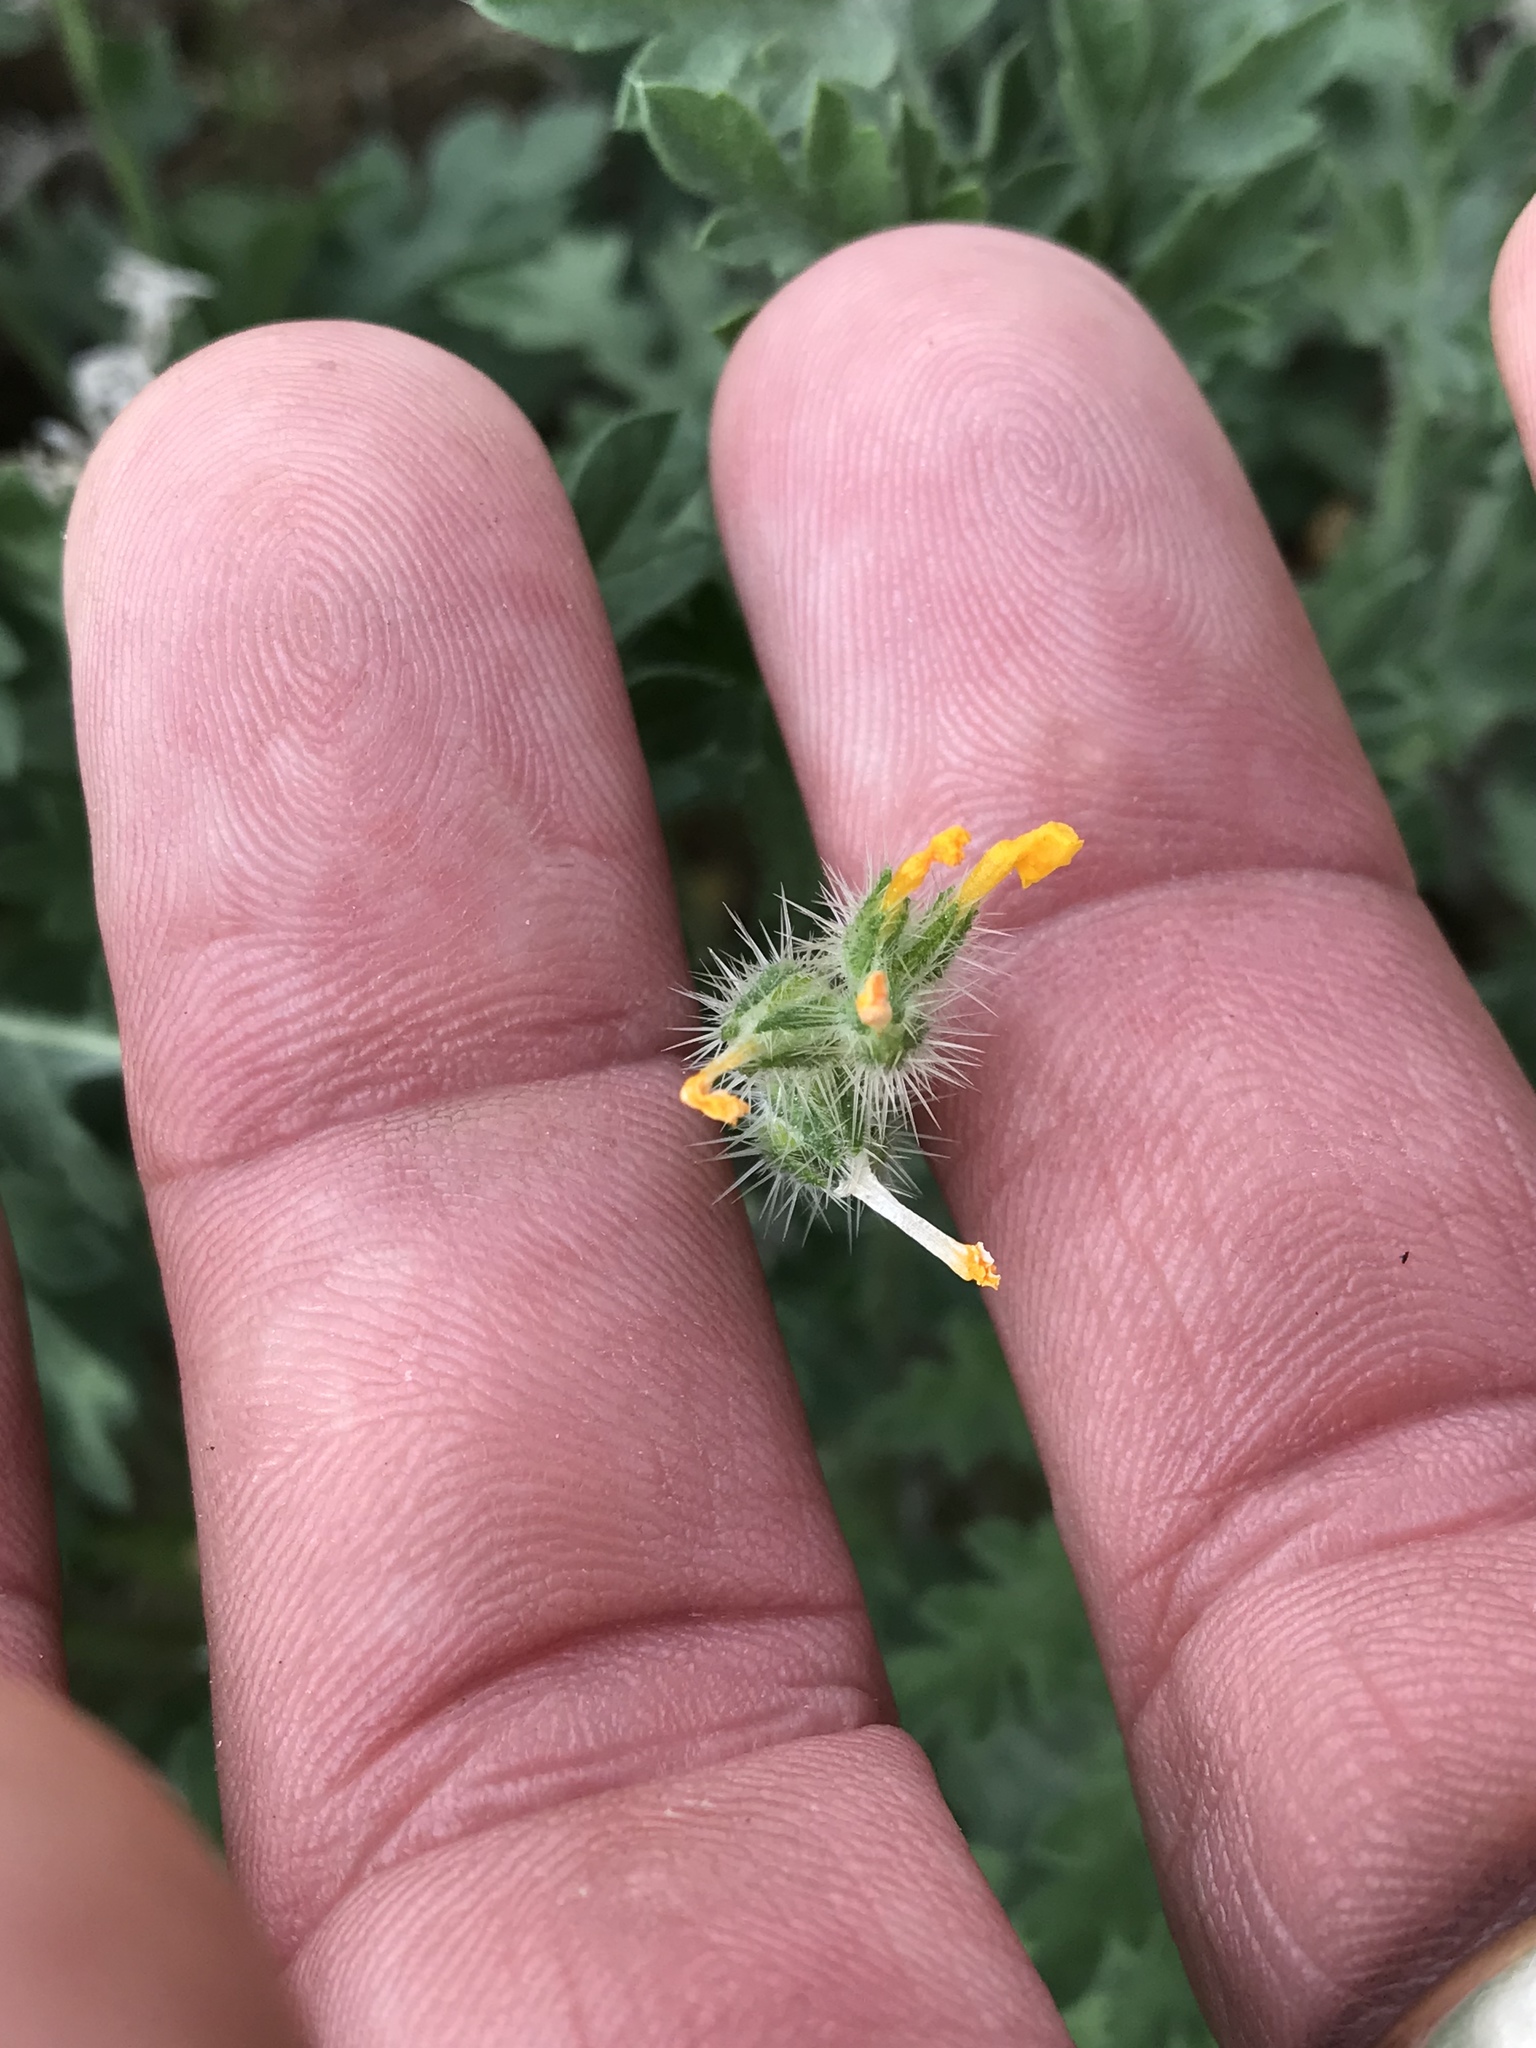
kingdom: Plantae
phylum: Tracheophyta
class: Magnoliopsida
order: Boraginales
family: Boraginaceae
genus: Amsinckia
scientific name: Amsinckia menziesii
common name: Menzies' fiddleneck
